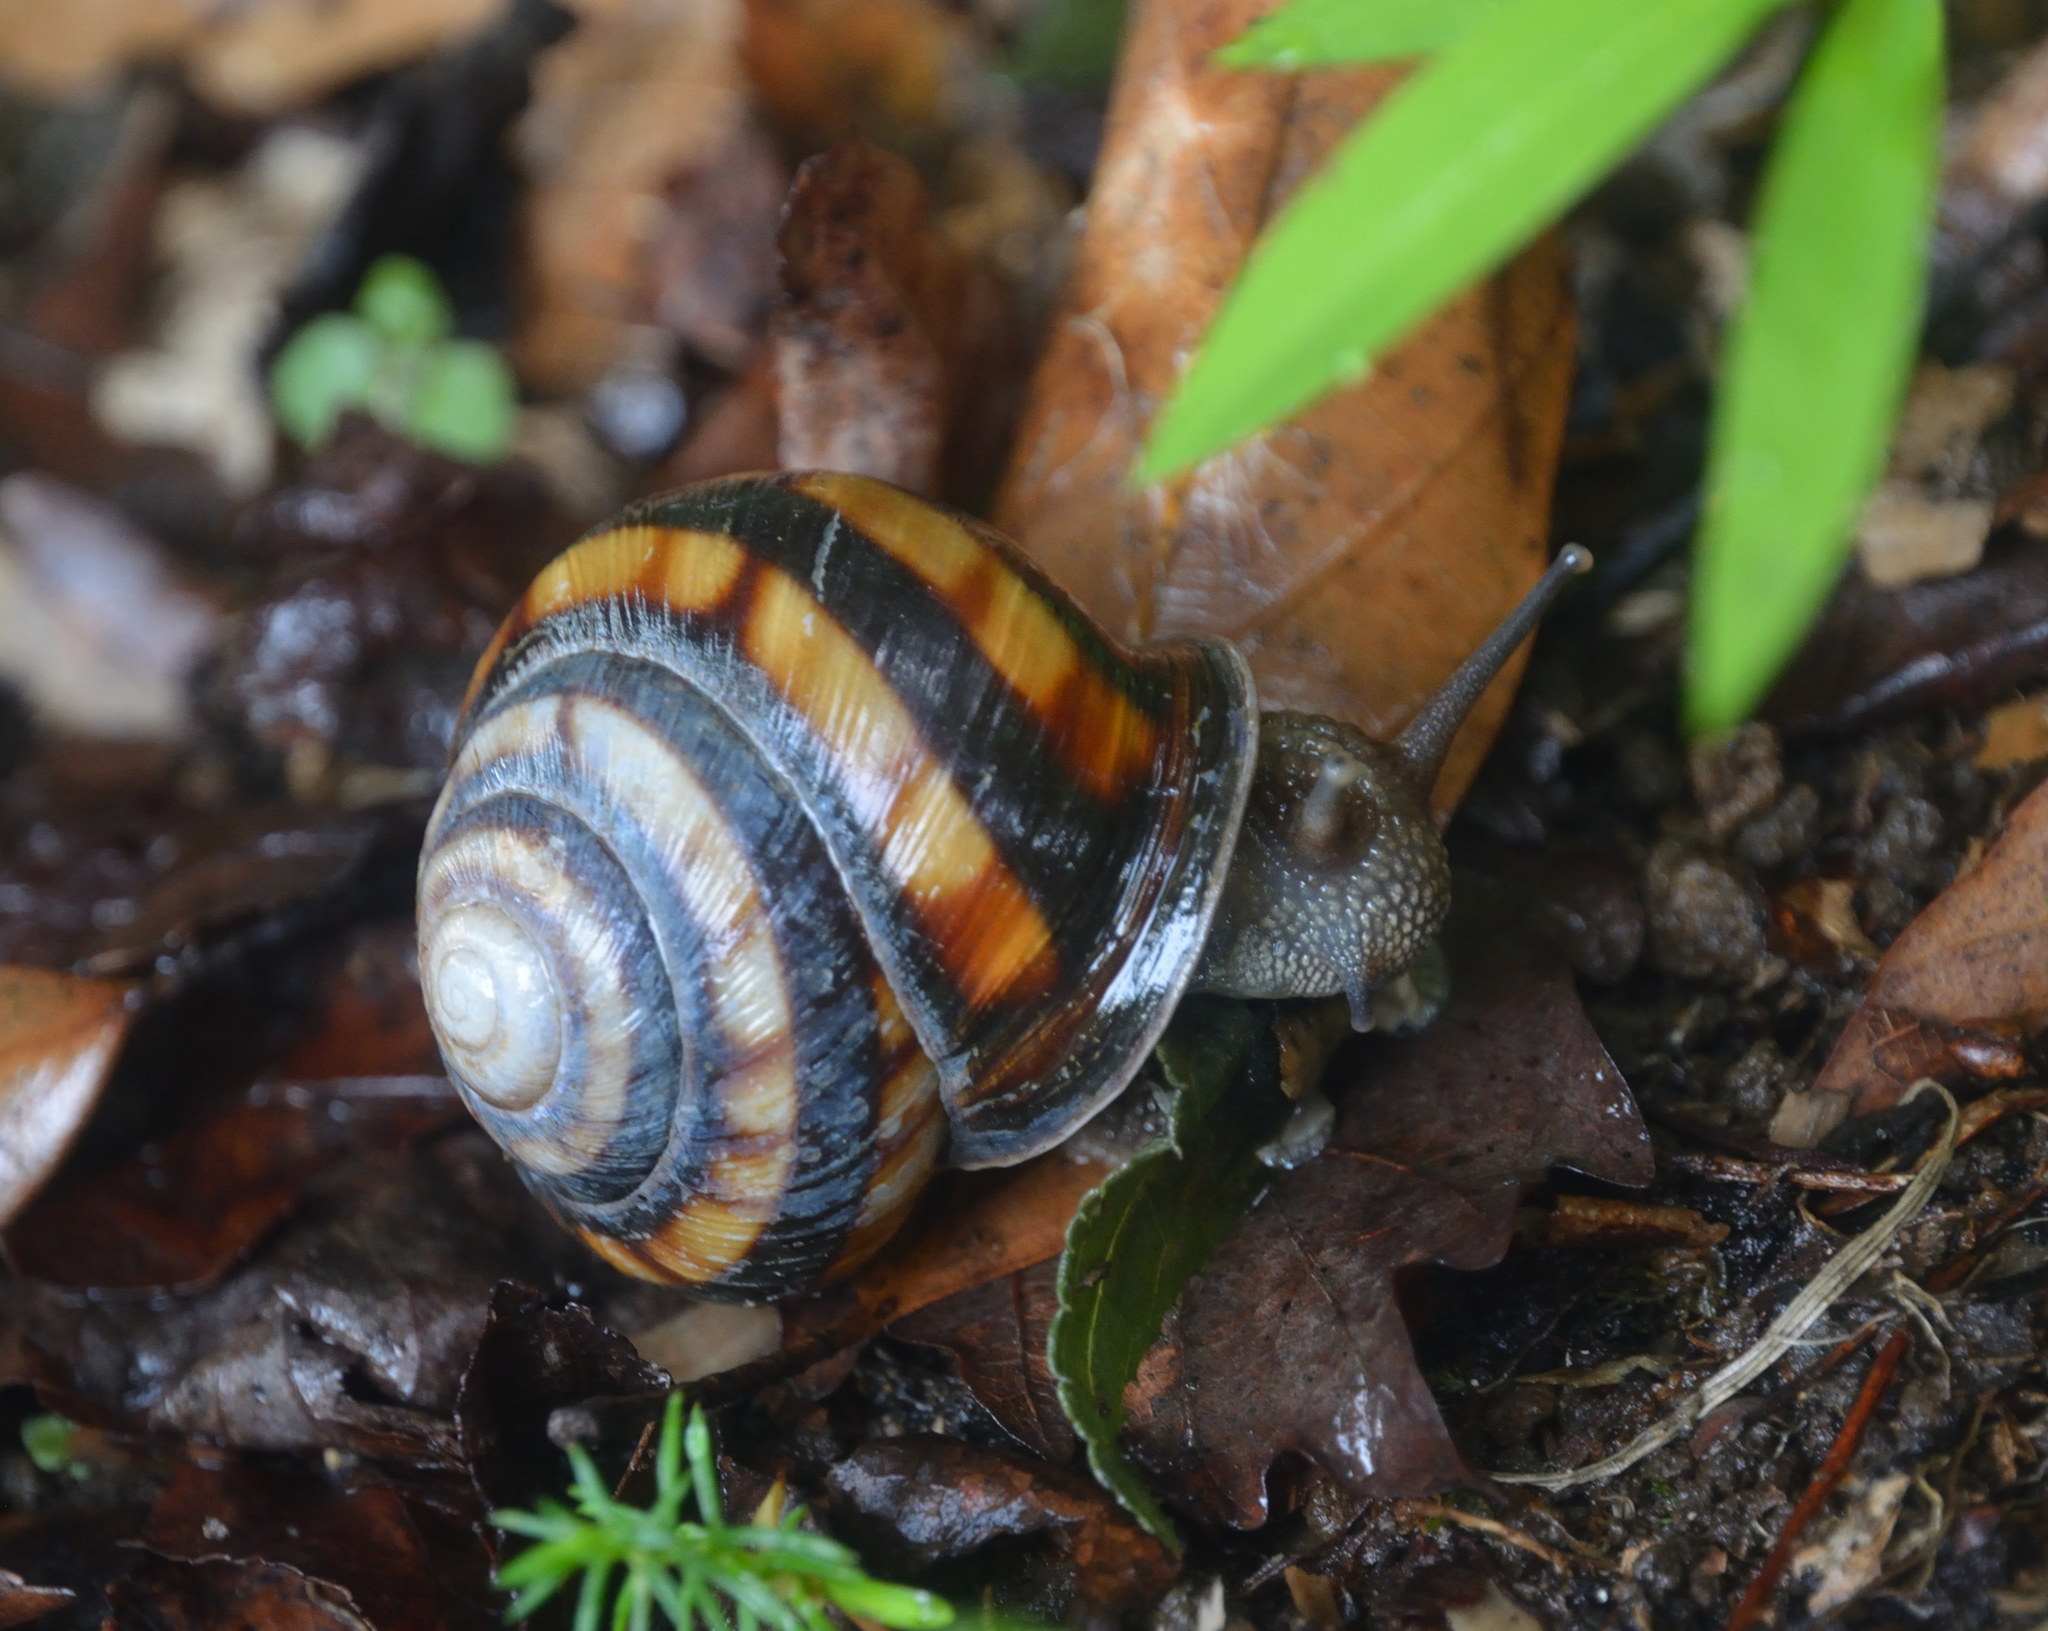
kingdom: Animalia
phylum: Mollusca
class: Gastropoda
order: Stylommatophora
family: Helicidae
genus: Caucasotachea
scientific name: Caucasotachea atrolabiata
